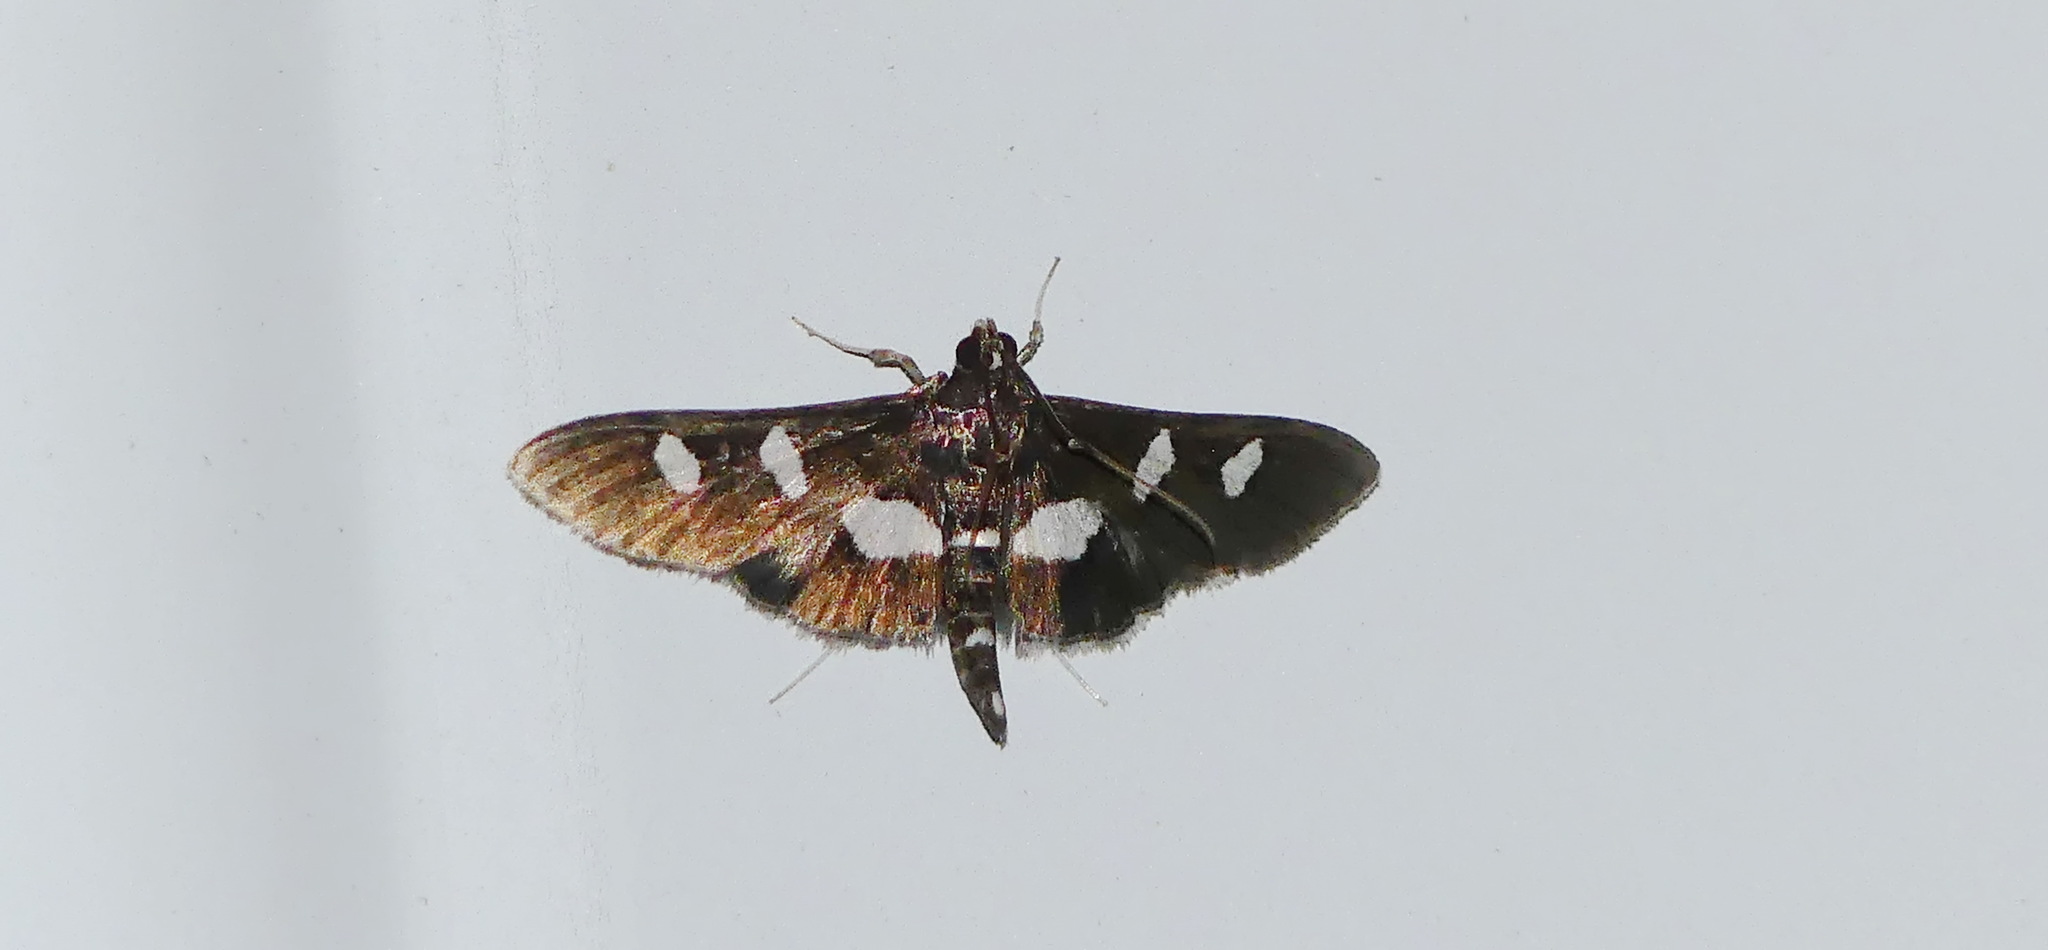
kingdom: Animalia
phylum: Arthropoda
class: Insecta
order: Lepidoptera
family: Crambidae
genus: Desmia
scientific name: Desmia
